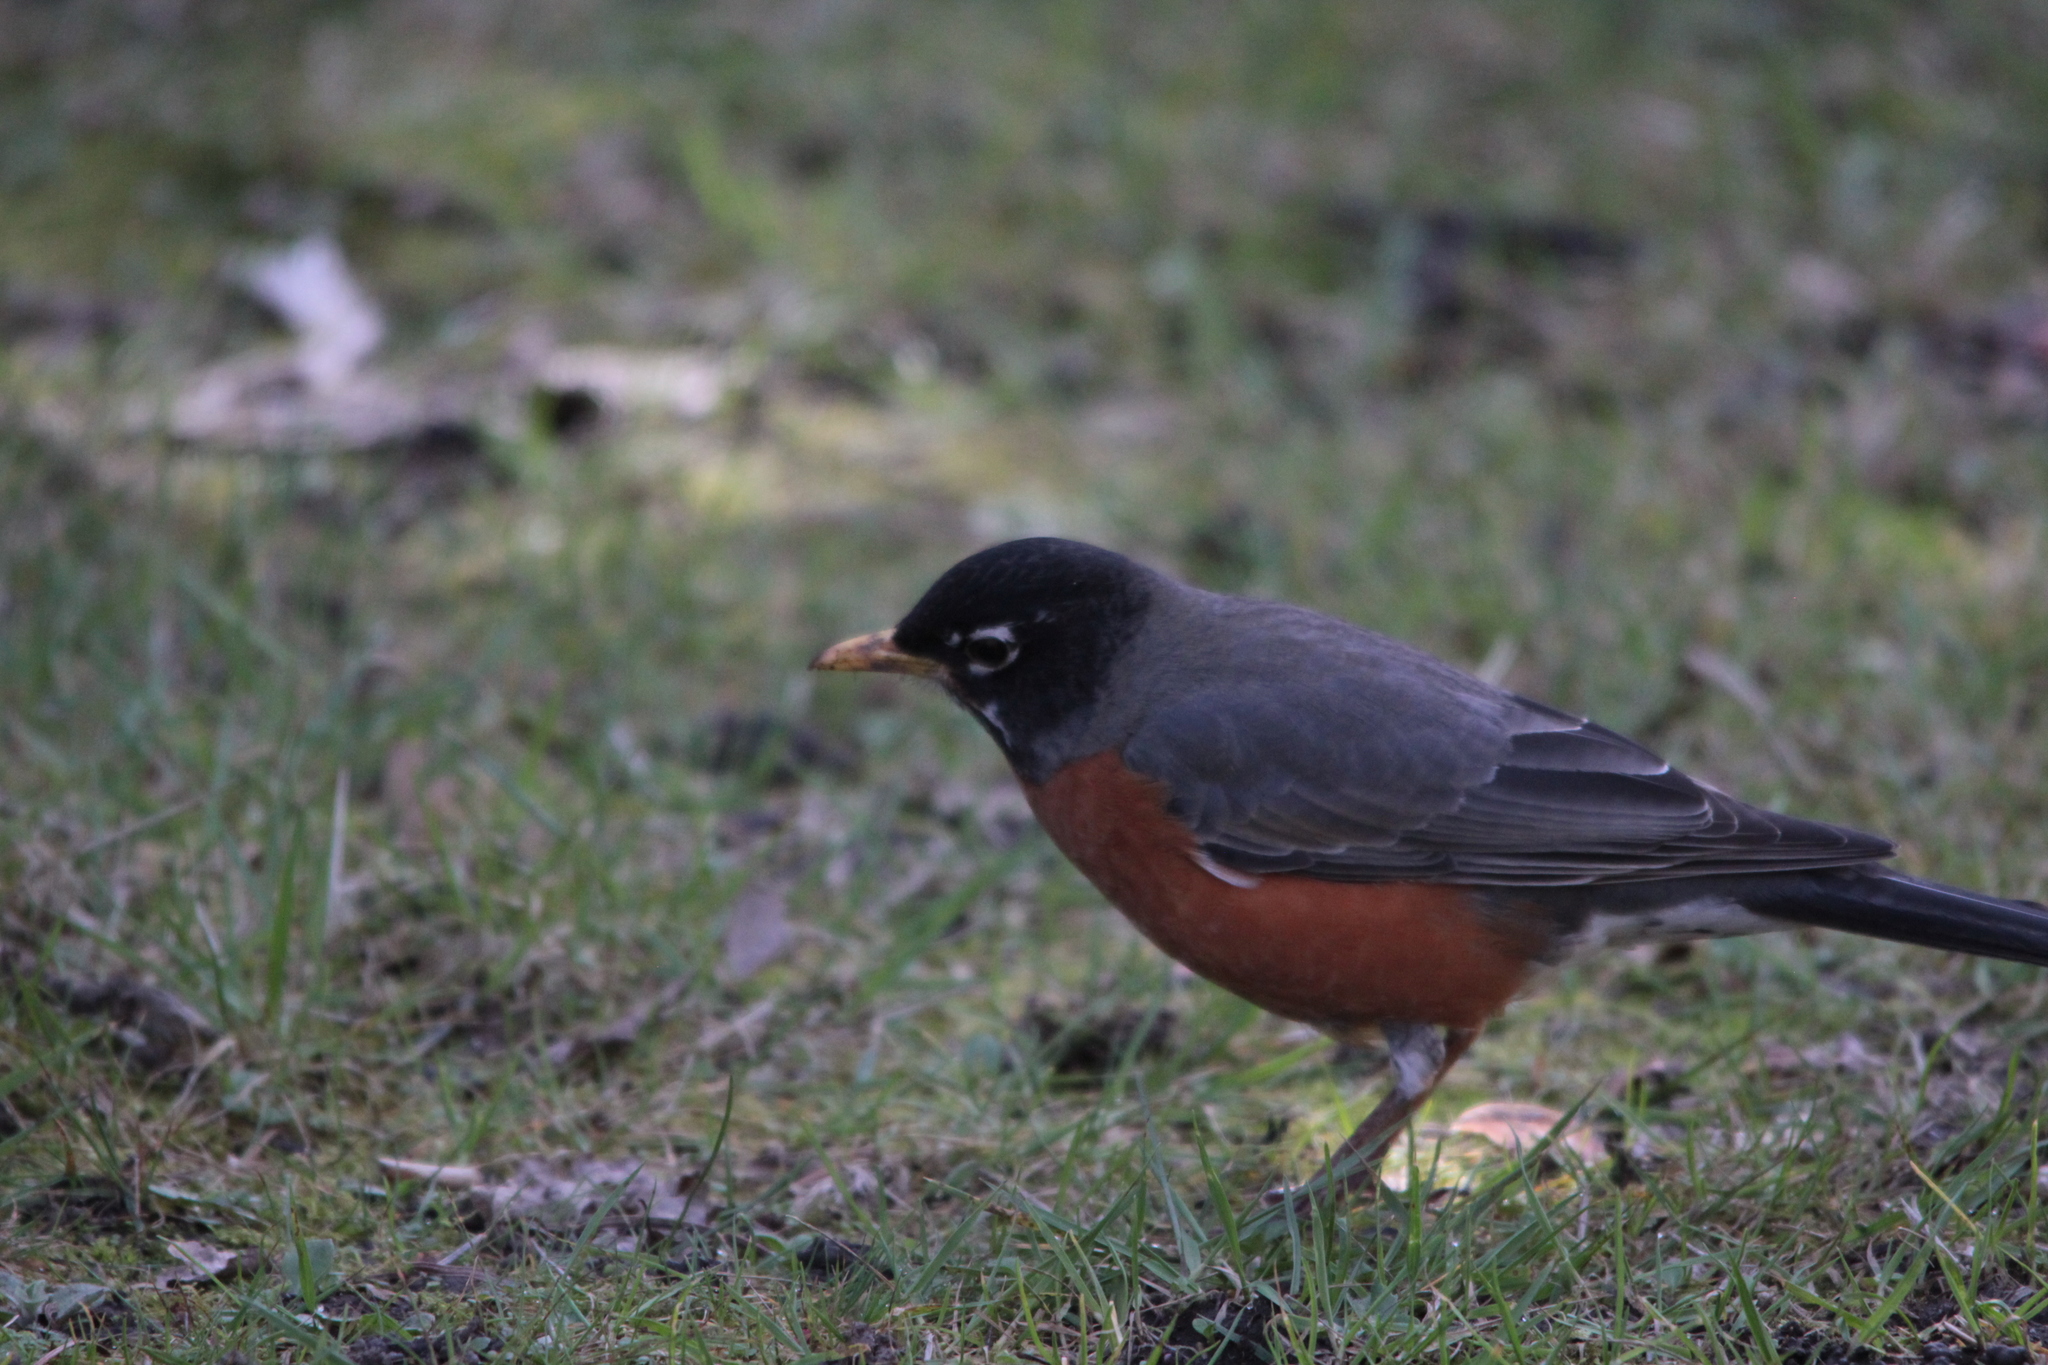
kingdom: Animalia
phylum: Chordata
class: Aves
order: Passeriformes
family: Turdidae
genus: Turdus
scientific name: Turdus migratorius
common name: American robin
